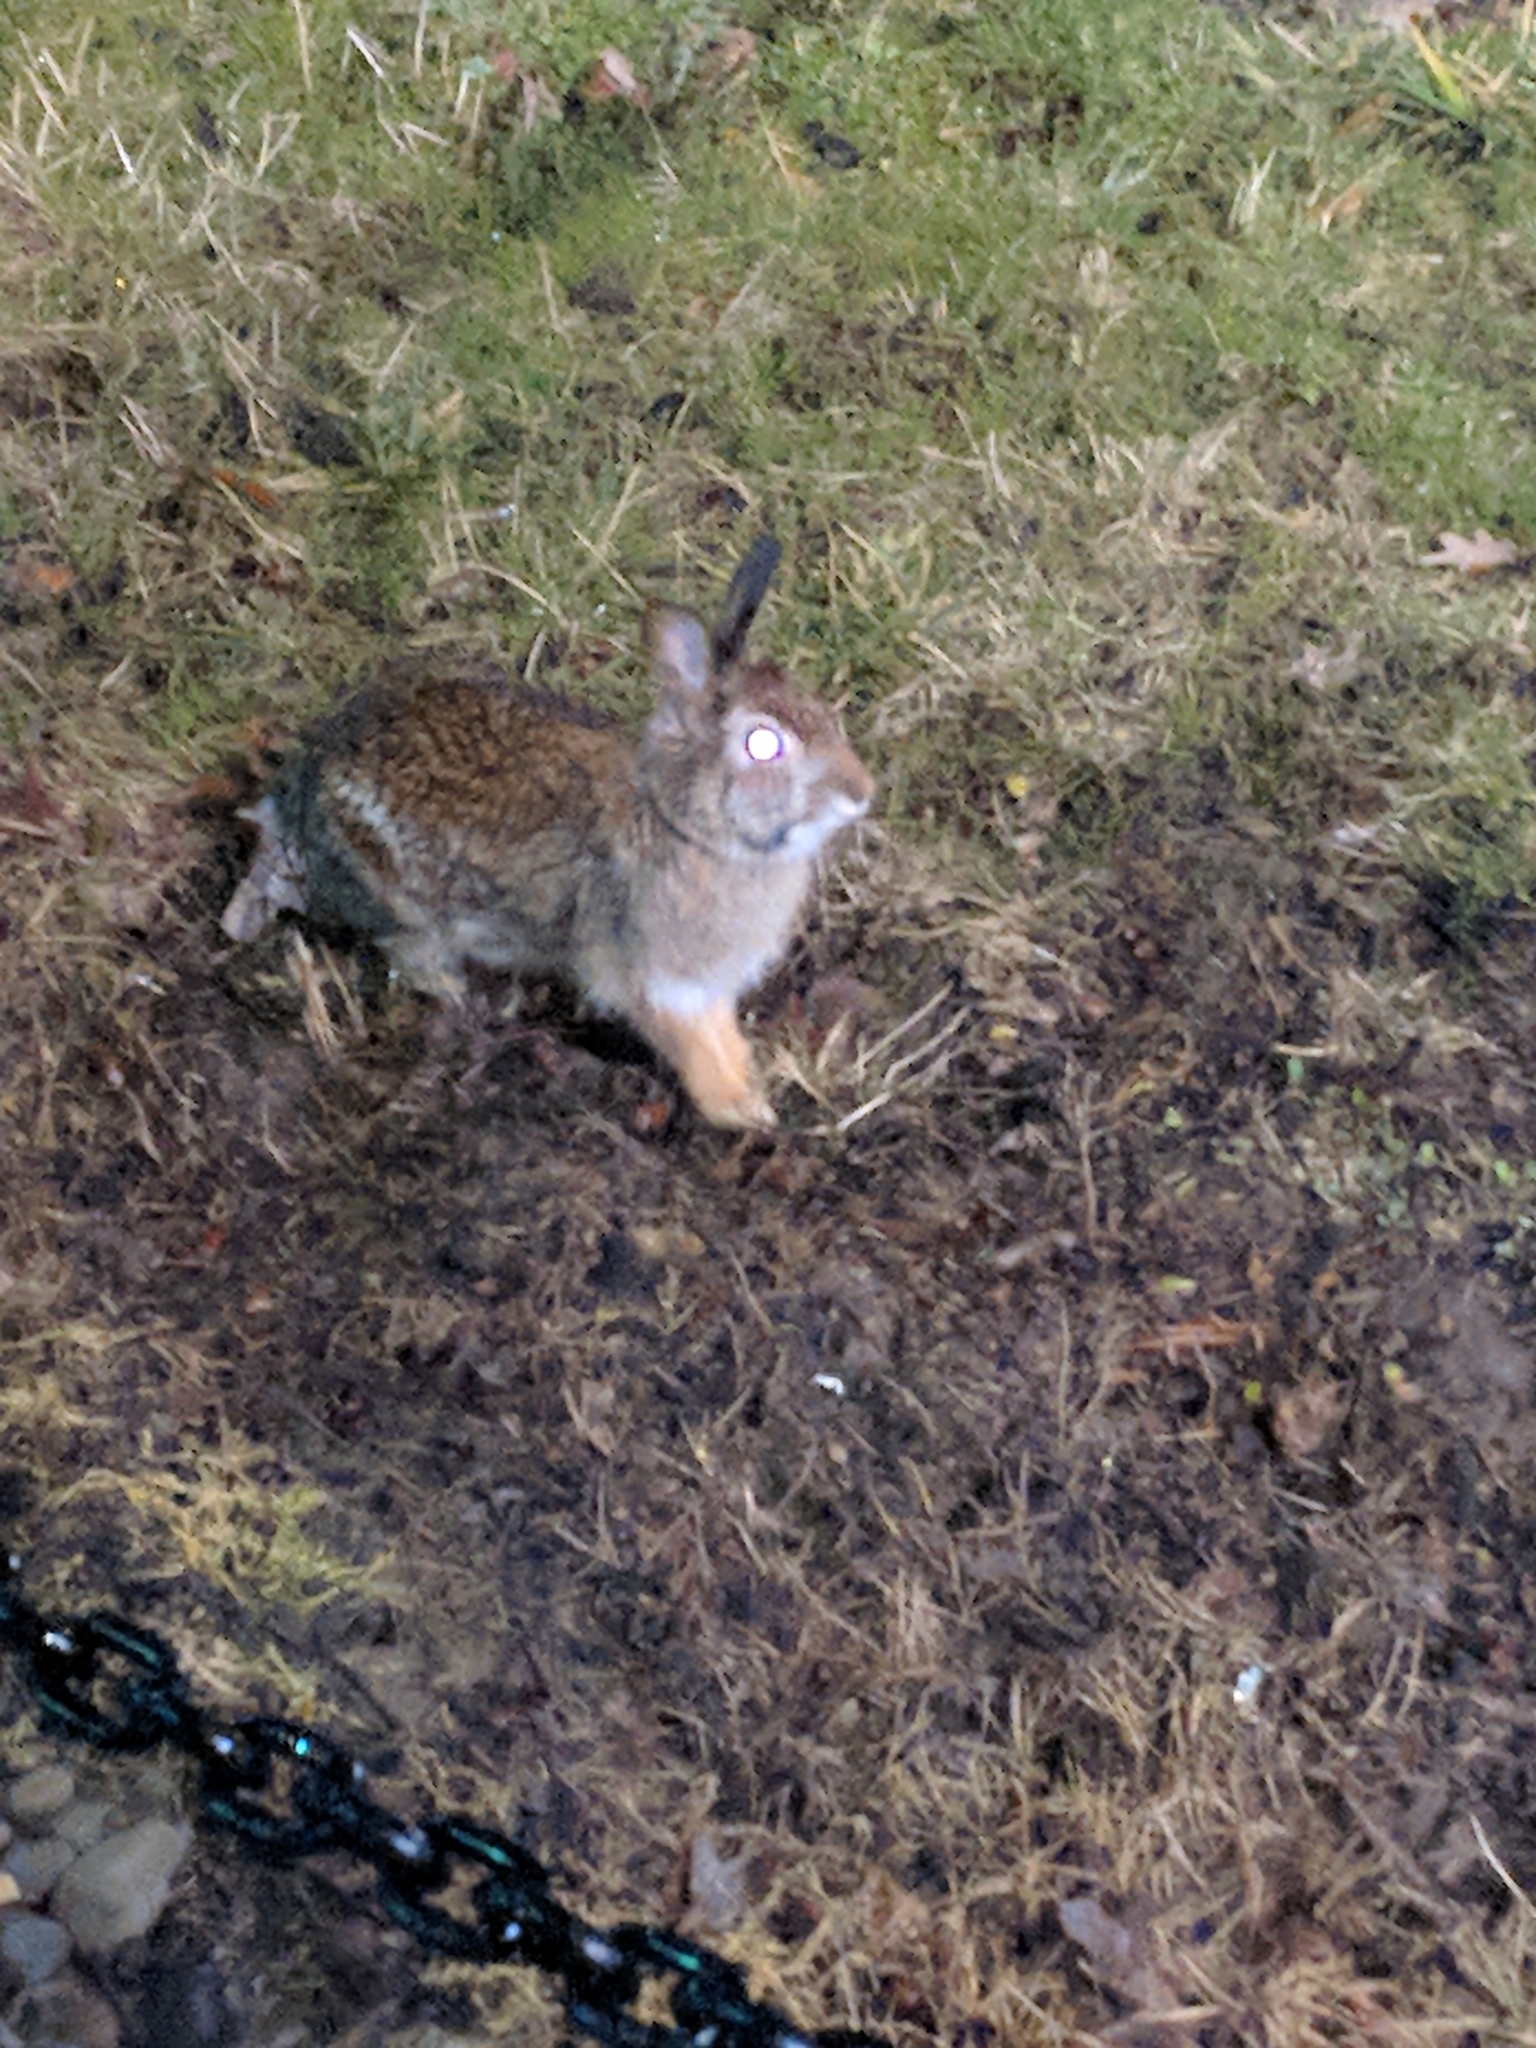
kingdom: Animalia
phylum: Chordata
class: Mammalia
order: Lagomorpha
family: Leporidae
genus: Sylvilagus
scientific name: Sylvilagus floridanus
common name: Eastern cottontail
